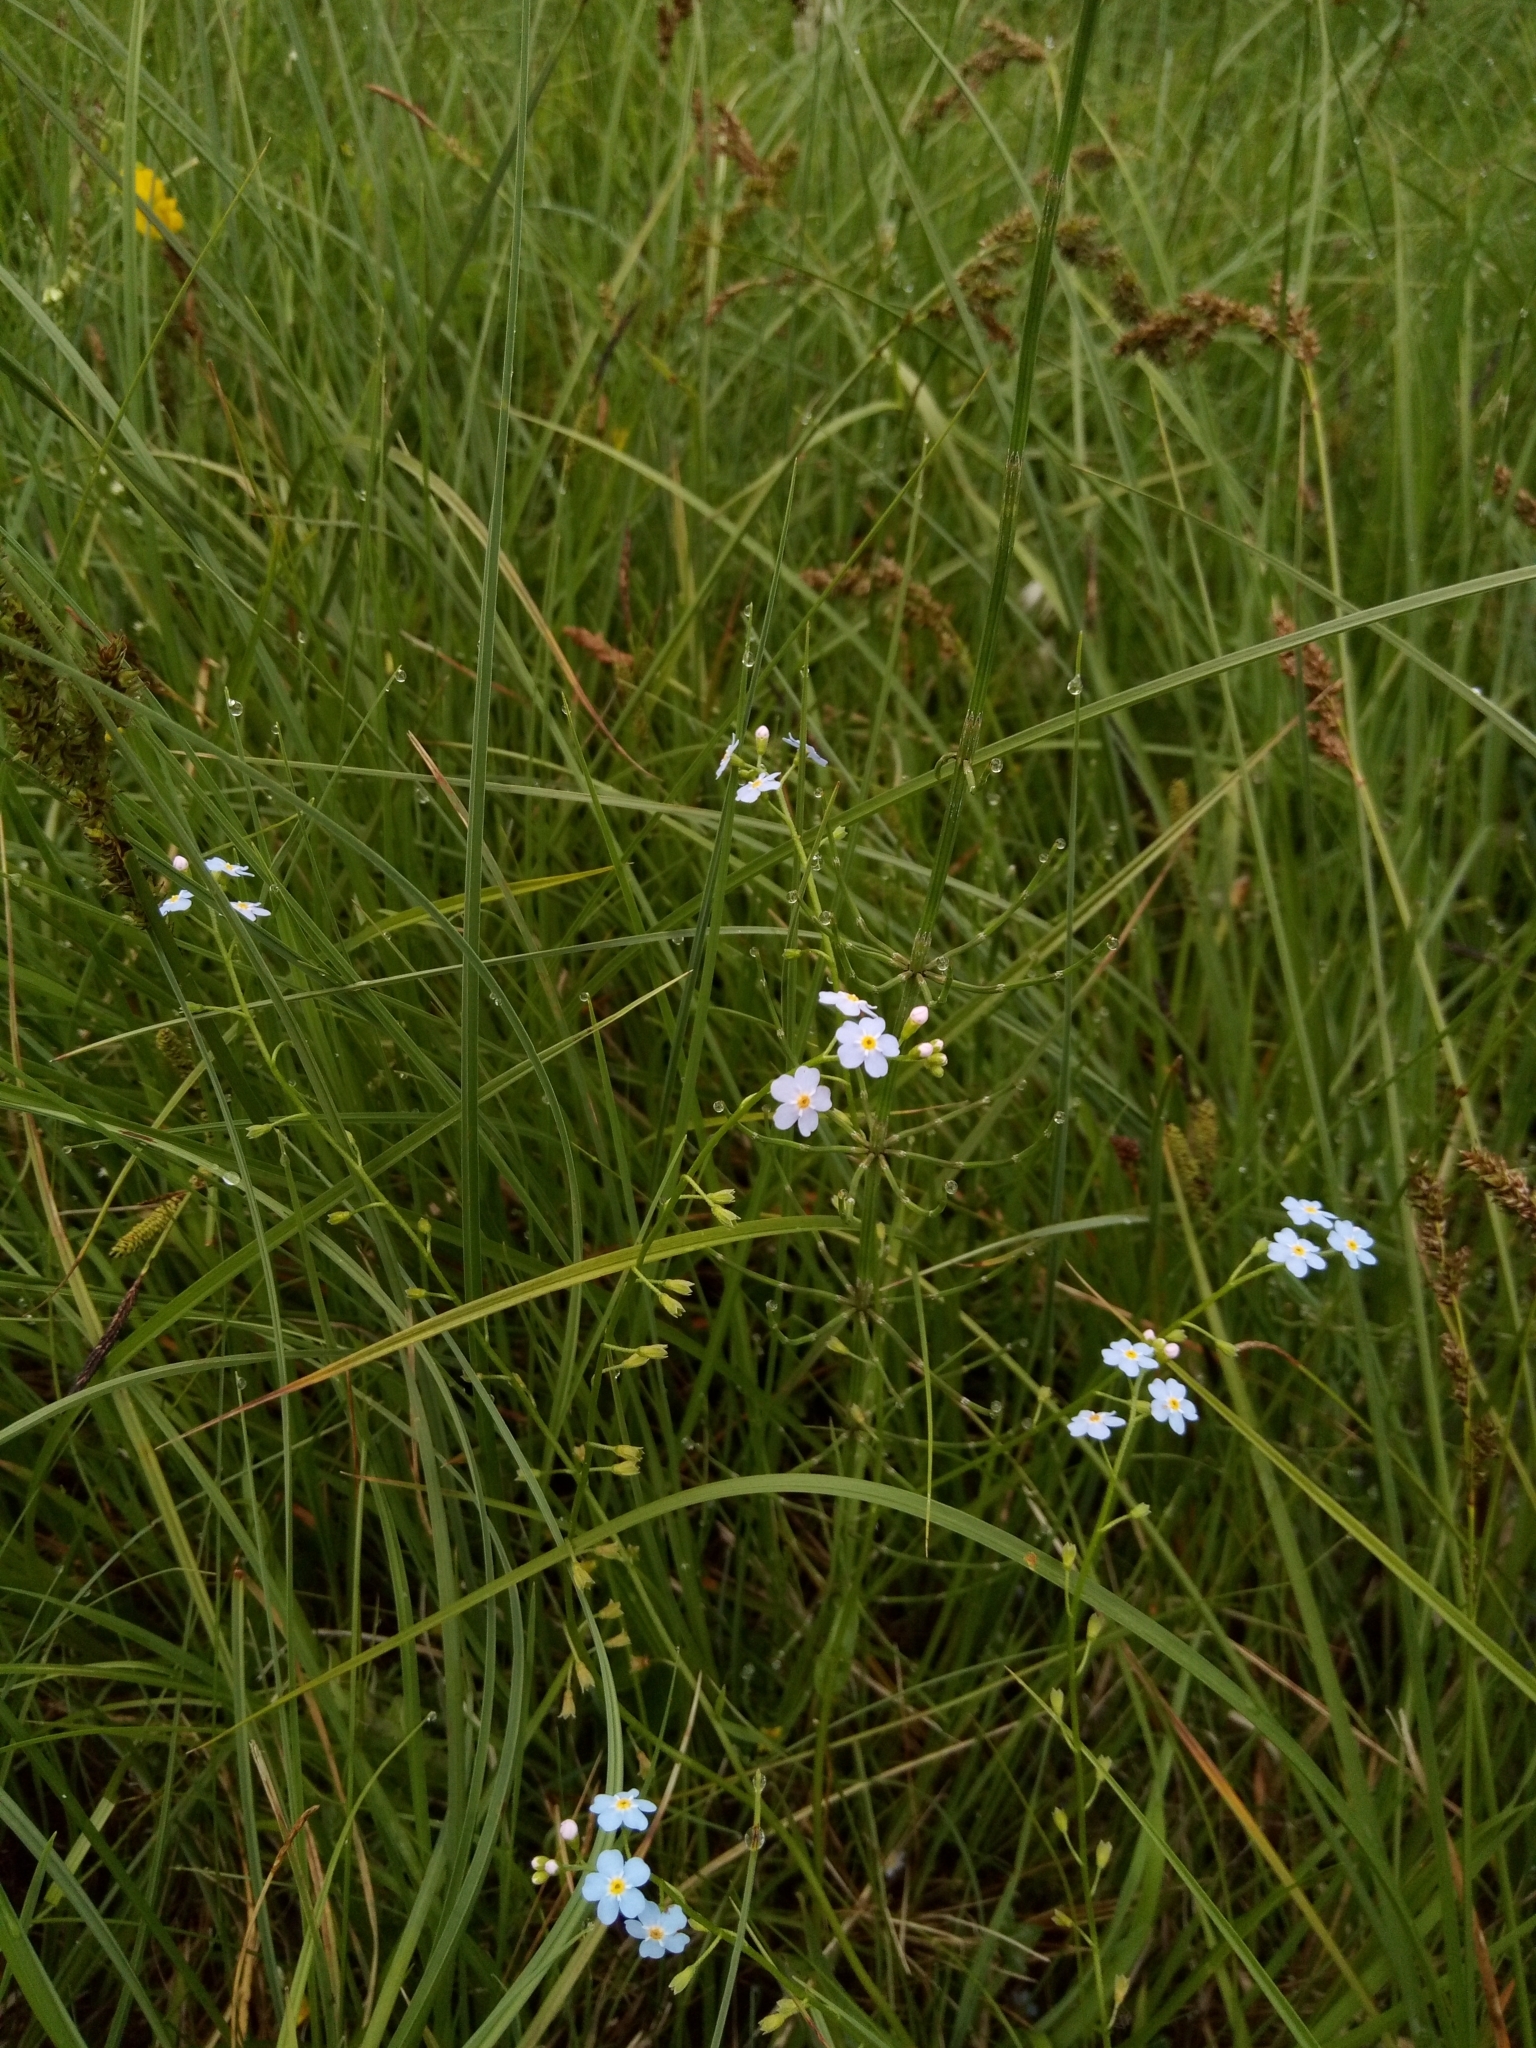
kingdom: Plantae
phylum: Tracheophyta
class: Polypodiopsida
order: Equisetales
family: Equisetaceae
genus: Equisetum
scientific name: Equisetum palustre
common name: Marsh horsetail
